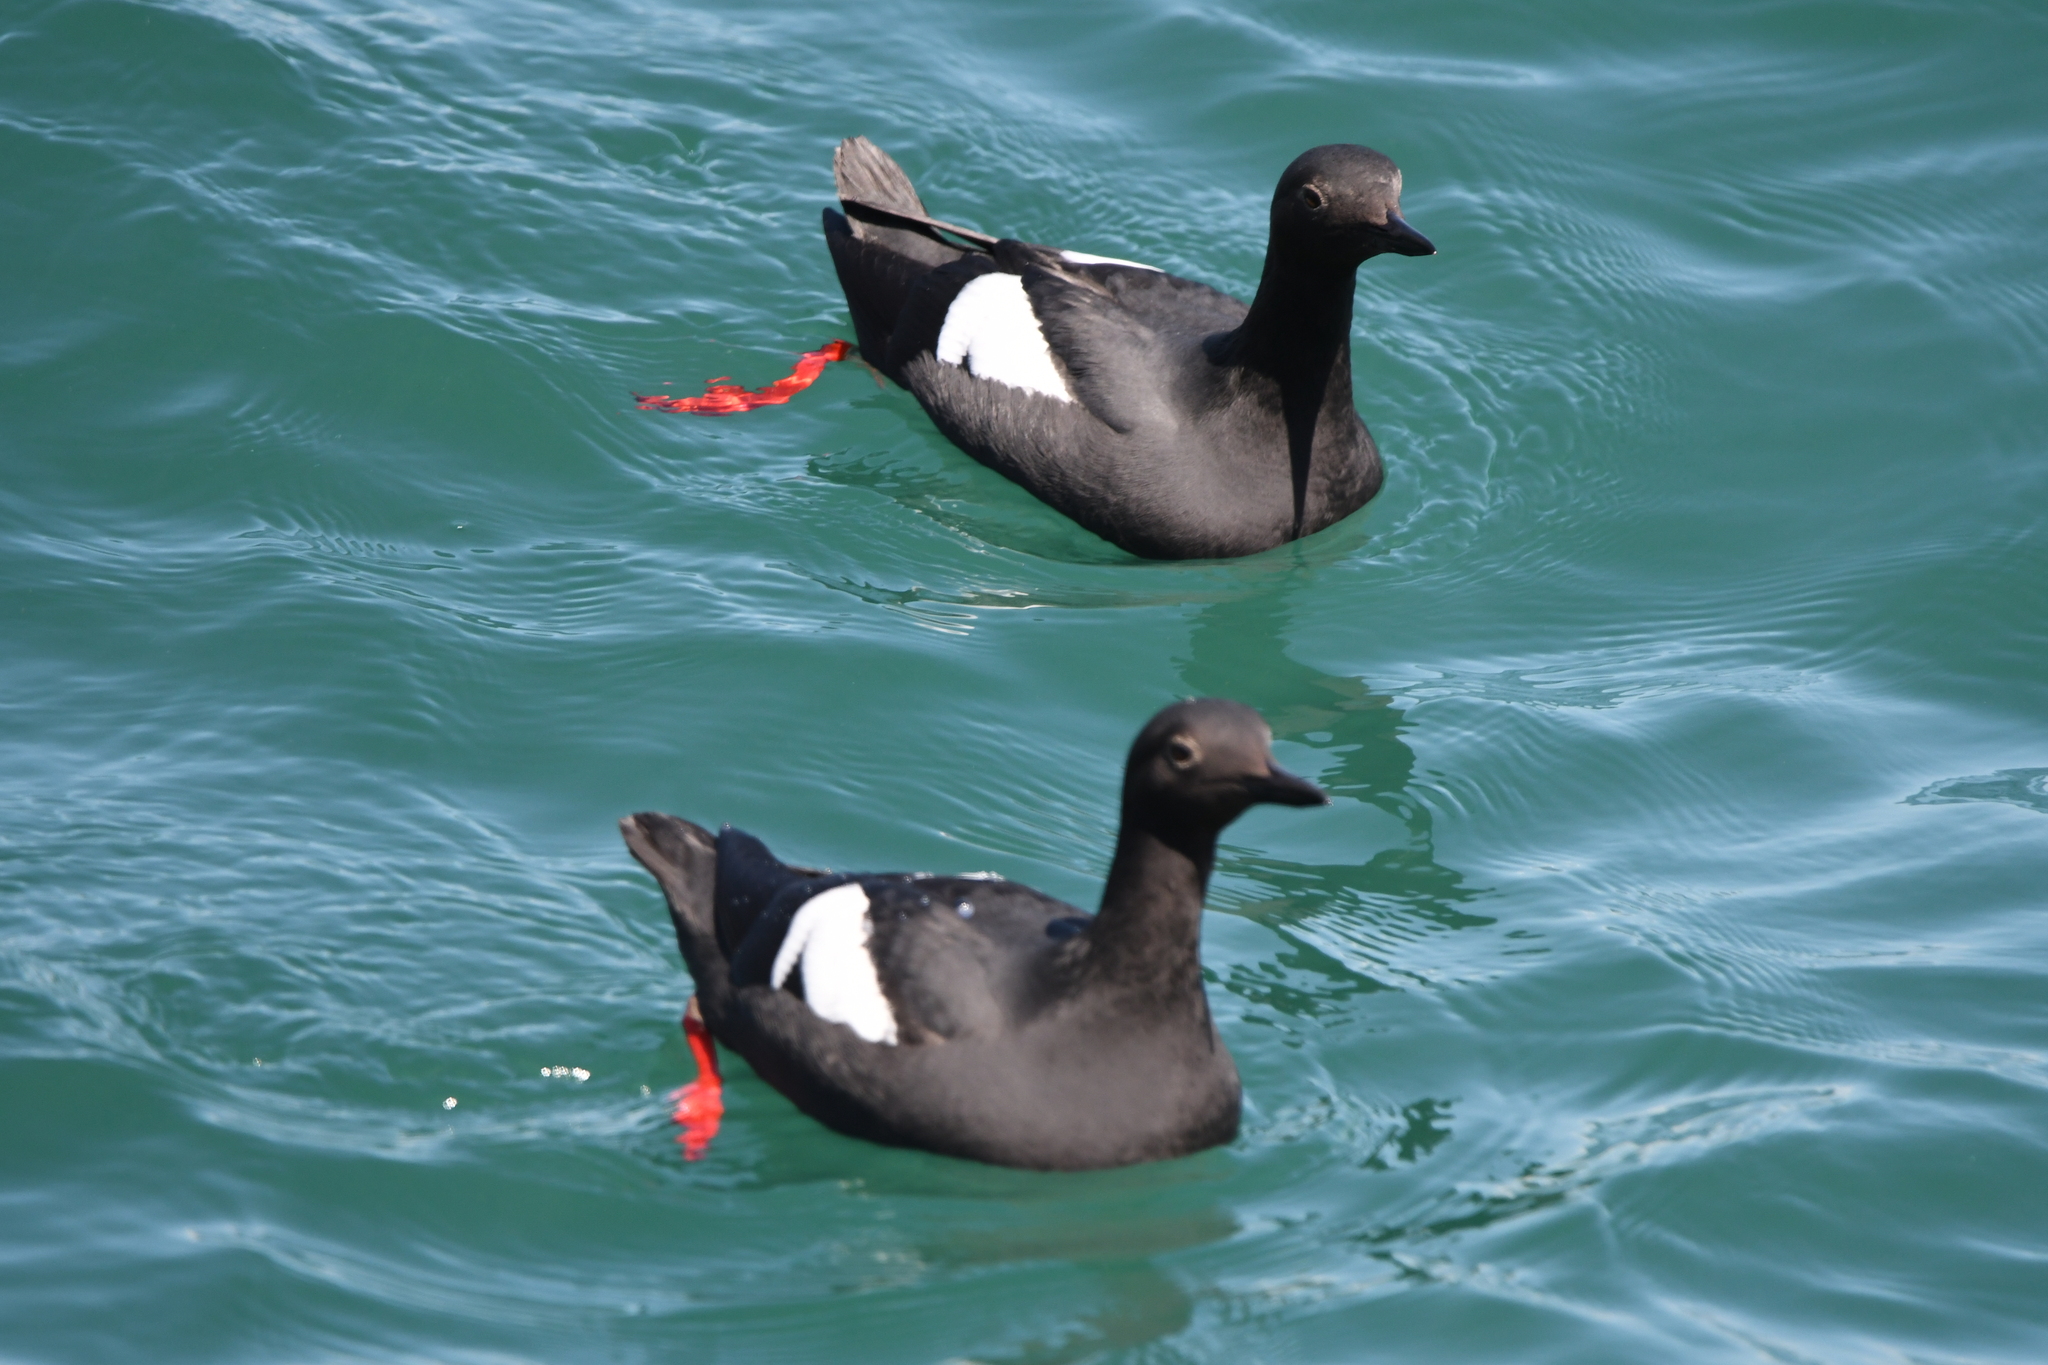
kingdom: Animalia
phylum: Chordata
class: Aves
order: Charadriiformes
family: Alcidae
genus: Cepphus
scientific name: Cepphus columba
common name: Pigeon guillemot
